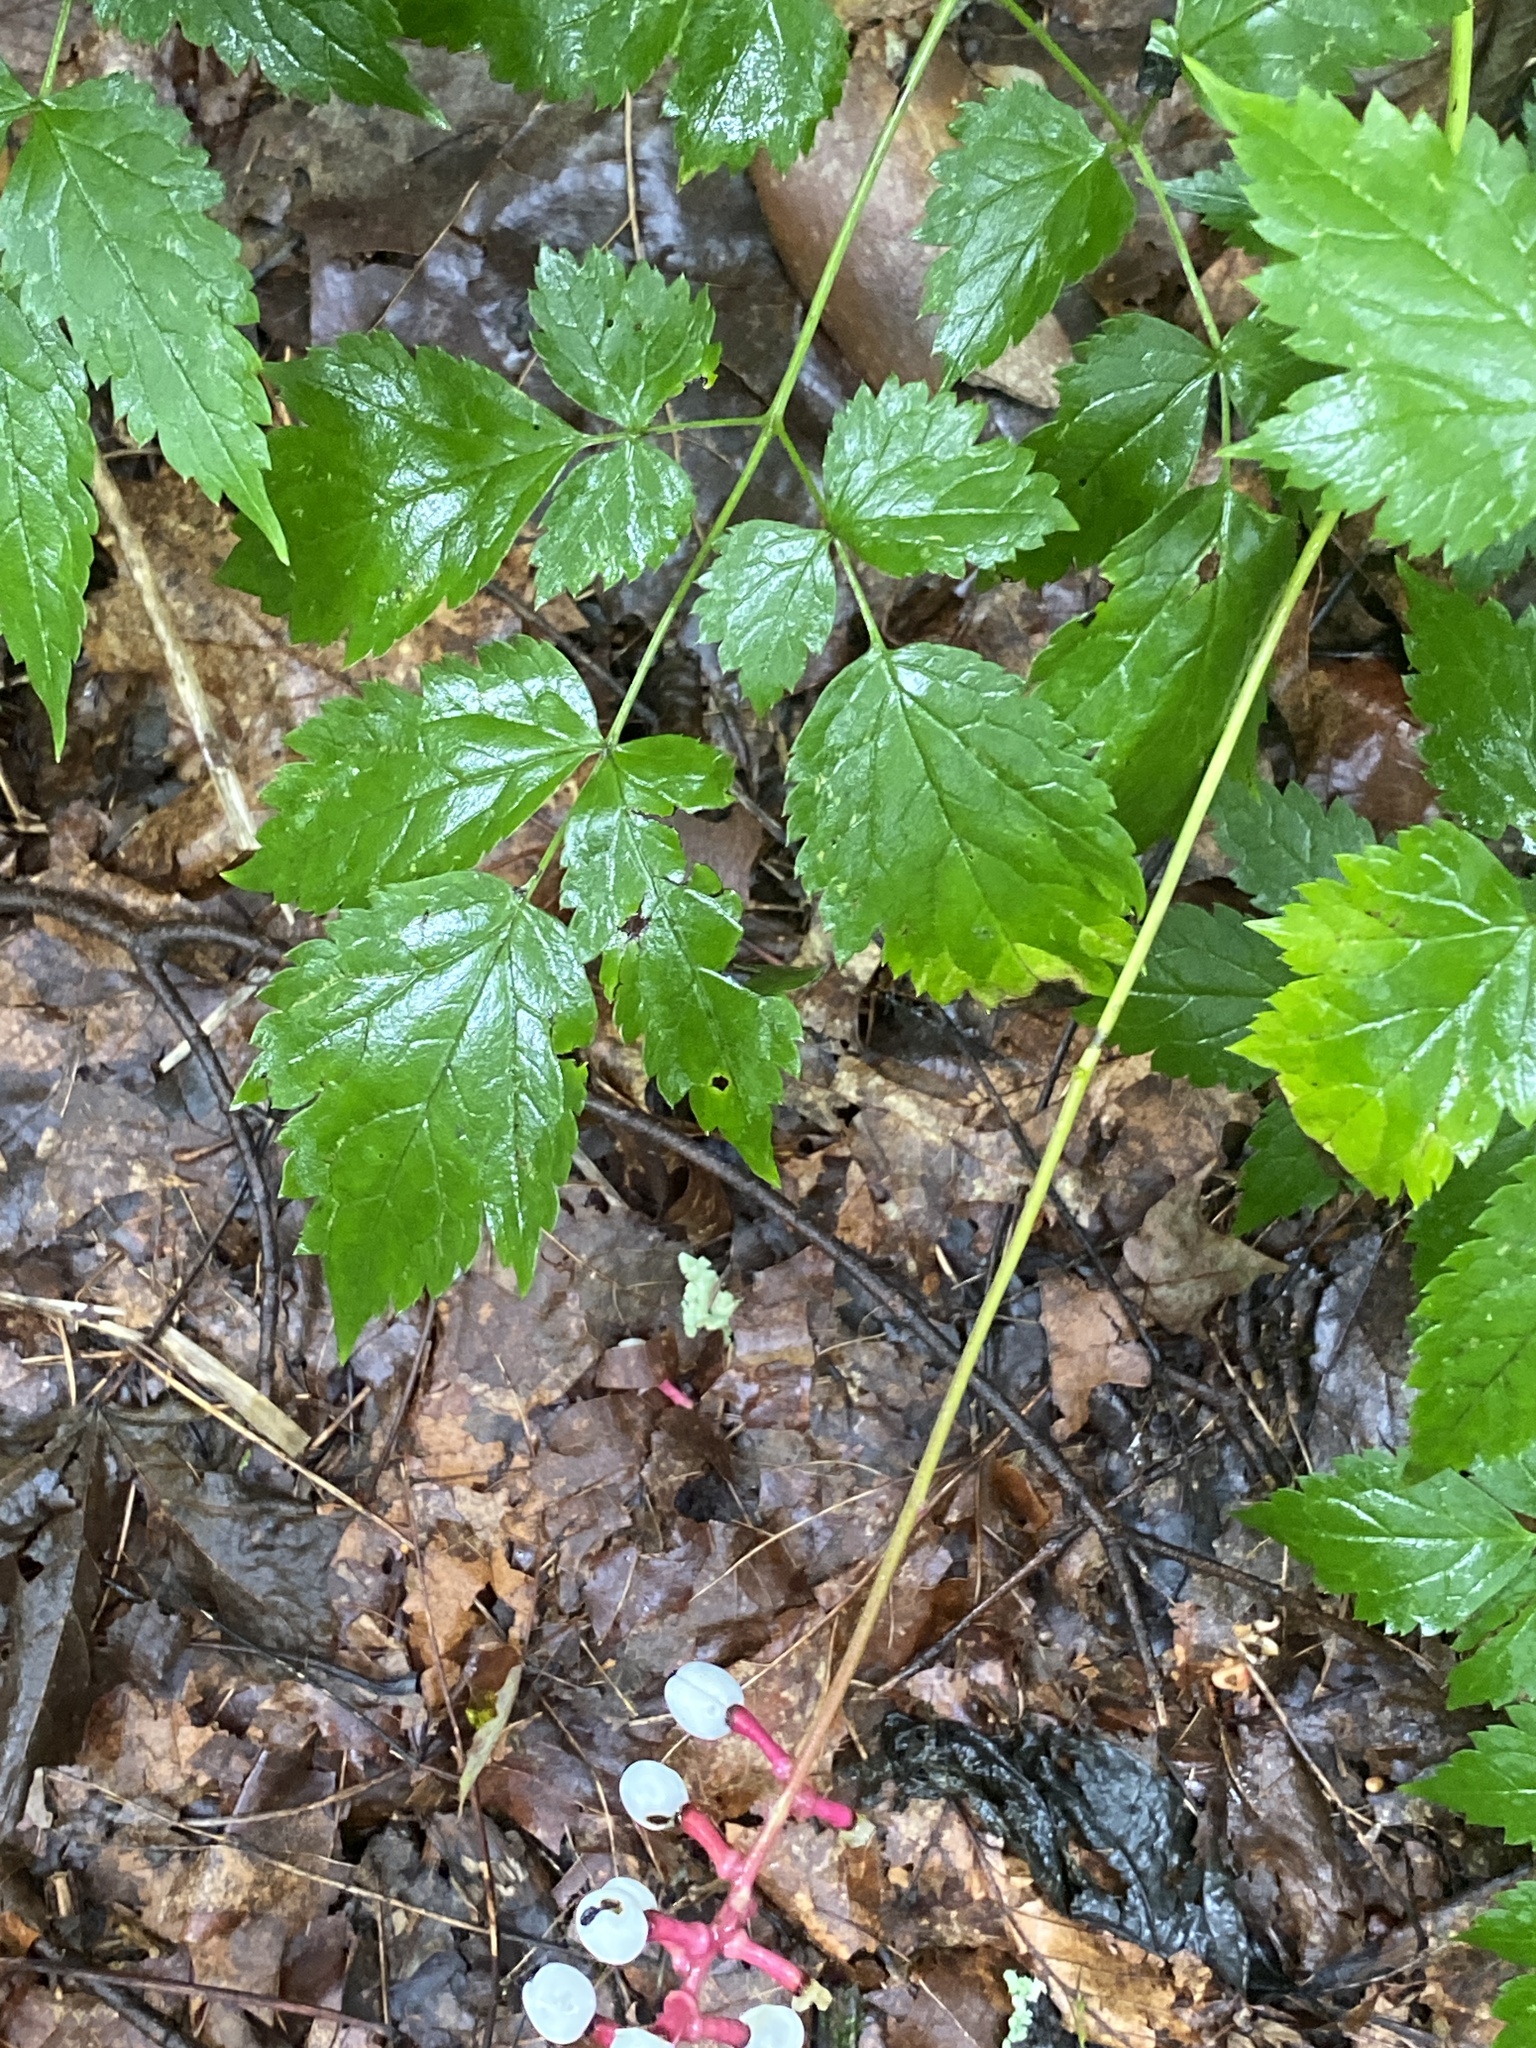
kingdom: Plantae
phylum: Tracheophyta
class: Magnoliopsida
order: Ranunculales
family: Ranunculaceae
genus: Actaea
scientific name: Actaea pachypoda
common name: Doll's-eyes
